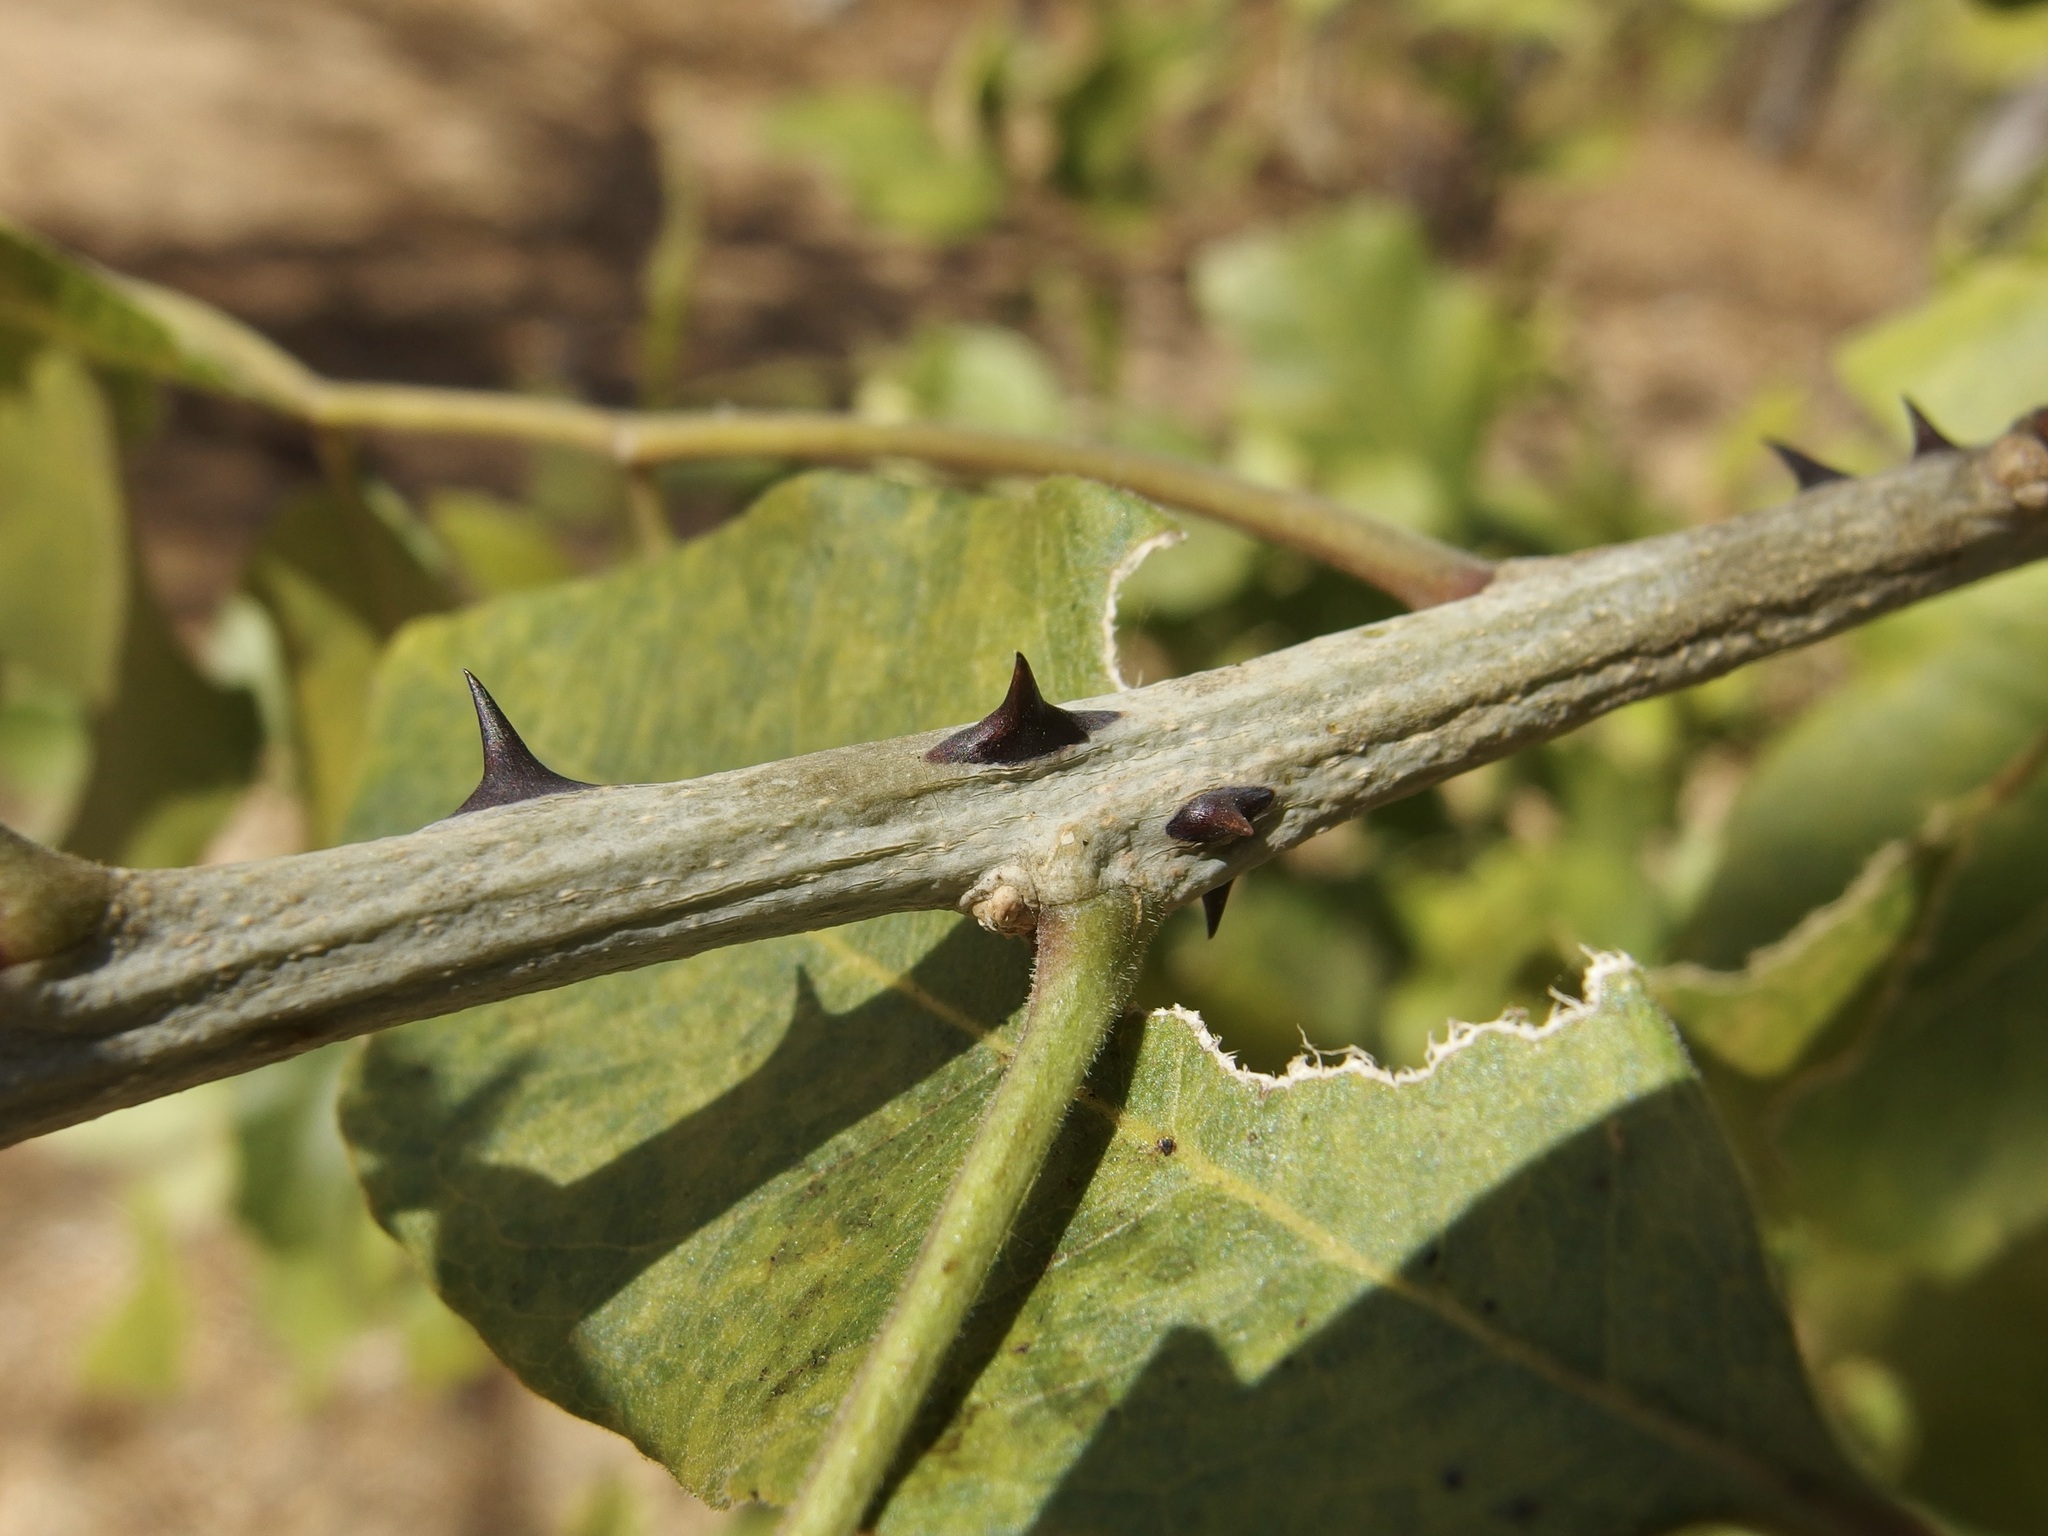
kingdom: Plantae
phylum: Tracheophyta
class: Magnoliopsida
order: Sapindales
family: Rutaceae
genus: Zanthoxylum
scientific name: Zanthoxylum arborescens
